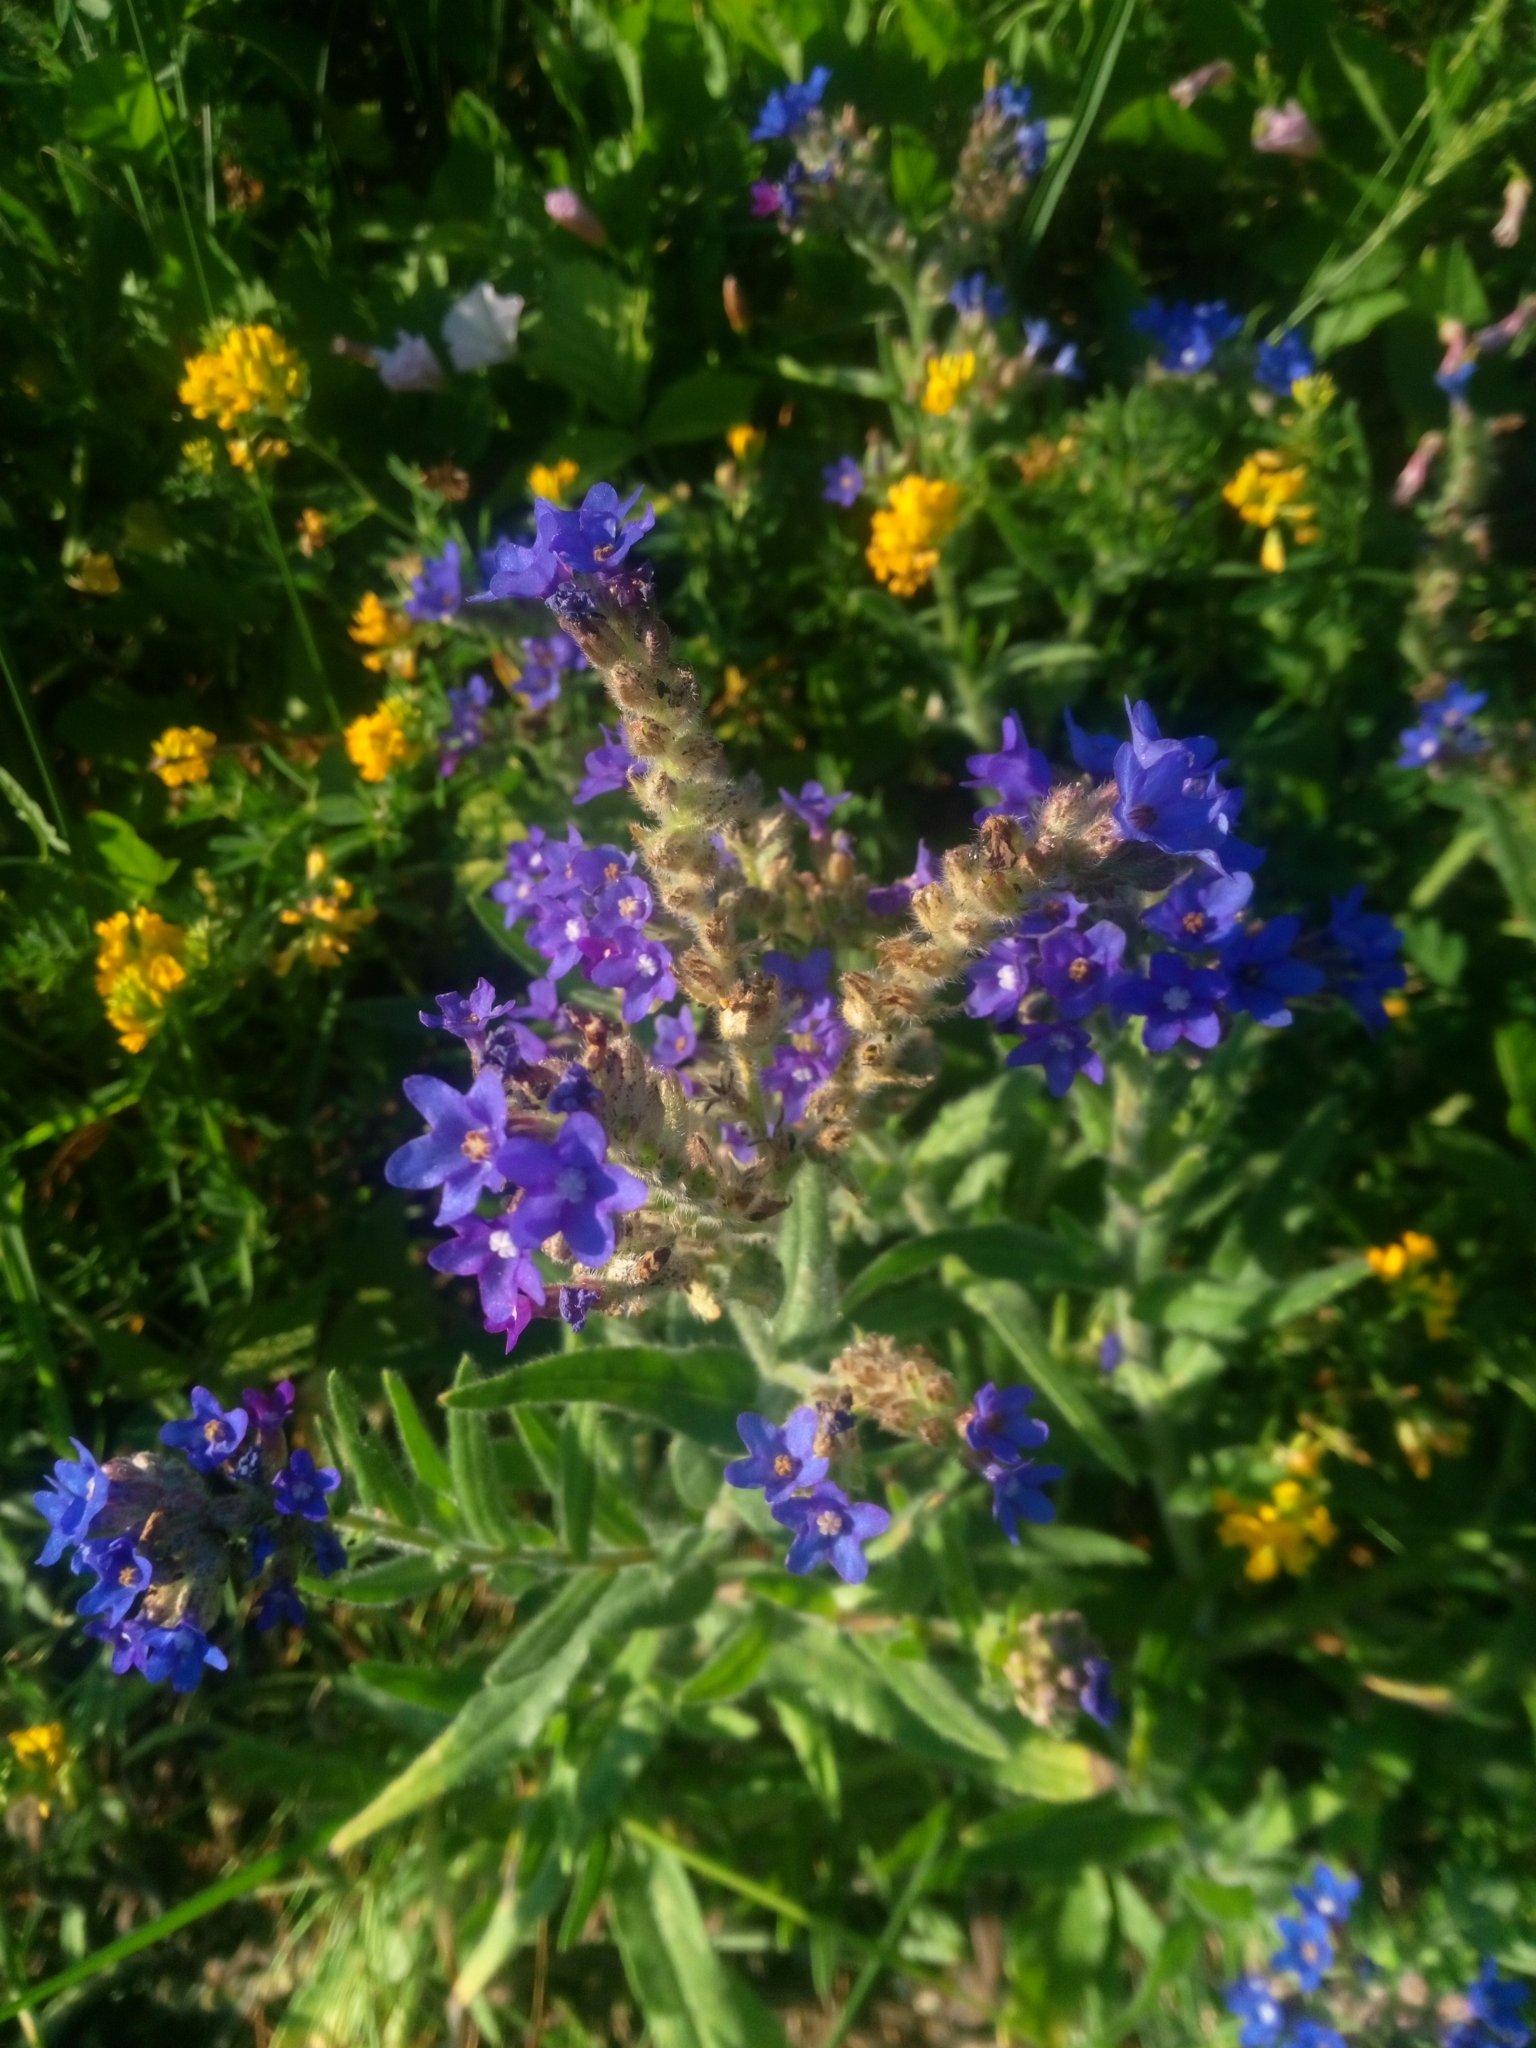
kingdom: Plantae
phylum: Tracheophyta
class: Magnoliopsida
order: Boraginales
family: Boraginaceae
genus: Anchusa
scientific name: Anchusa officinalis
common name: Alkanet
